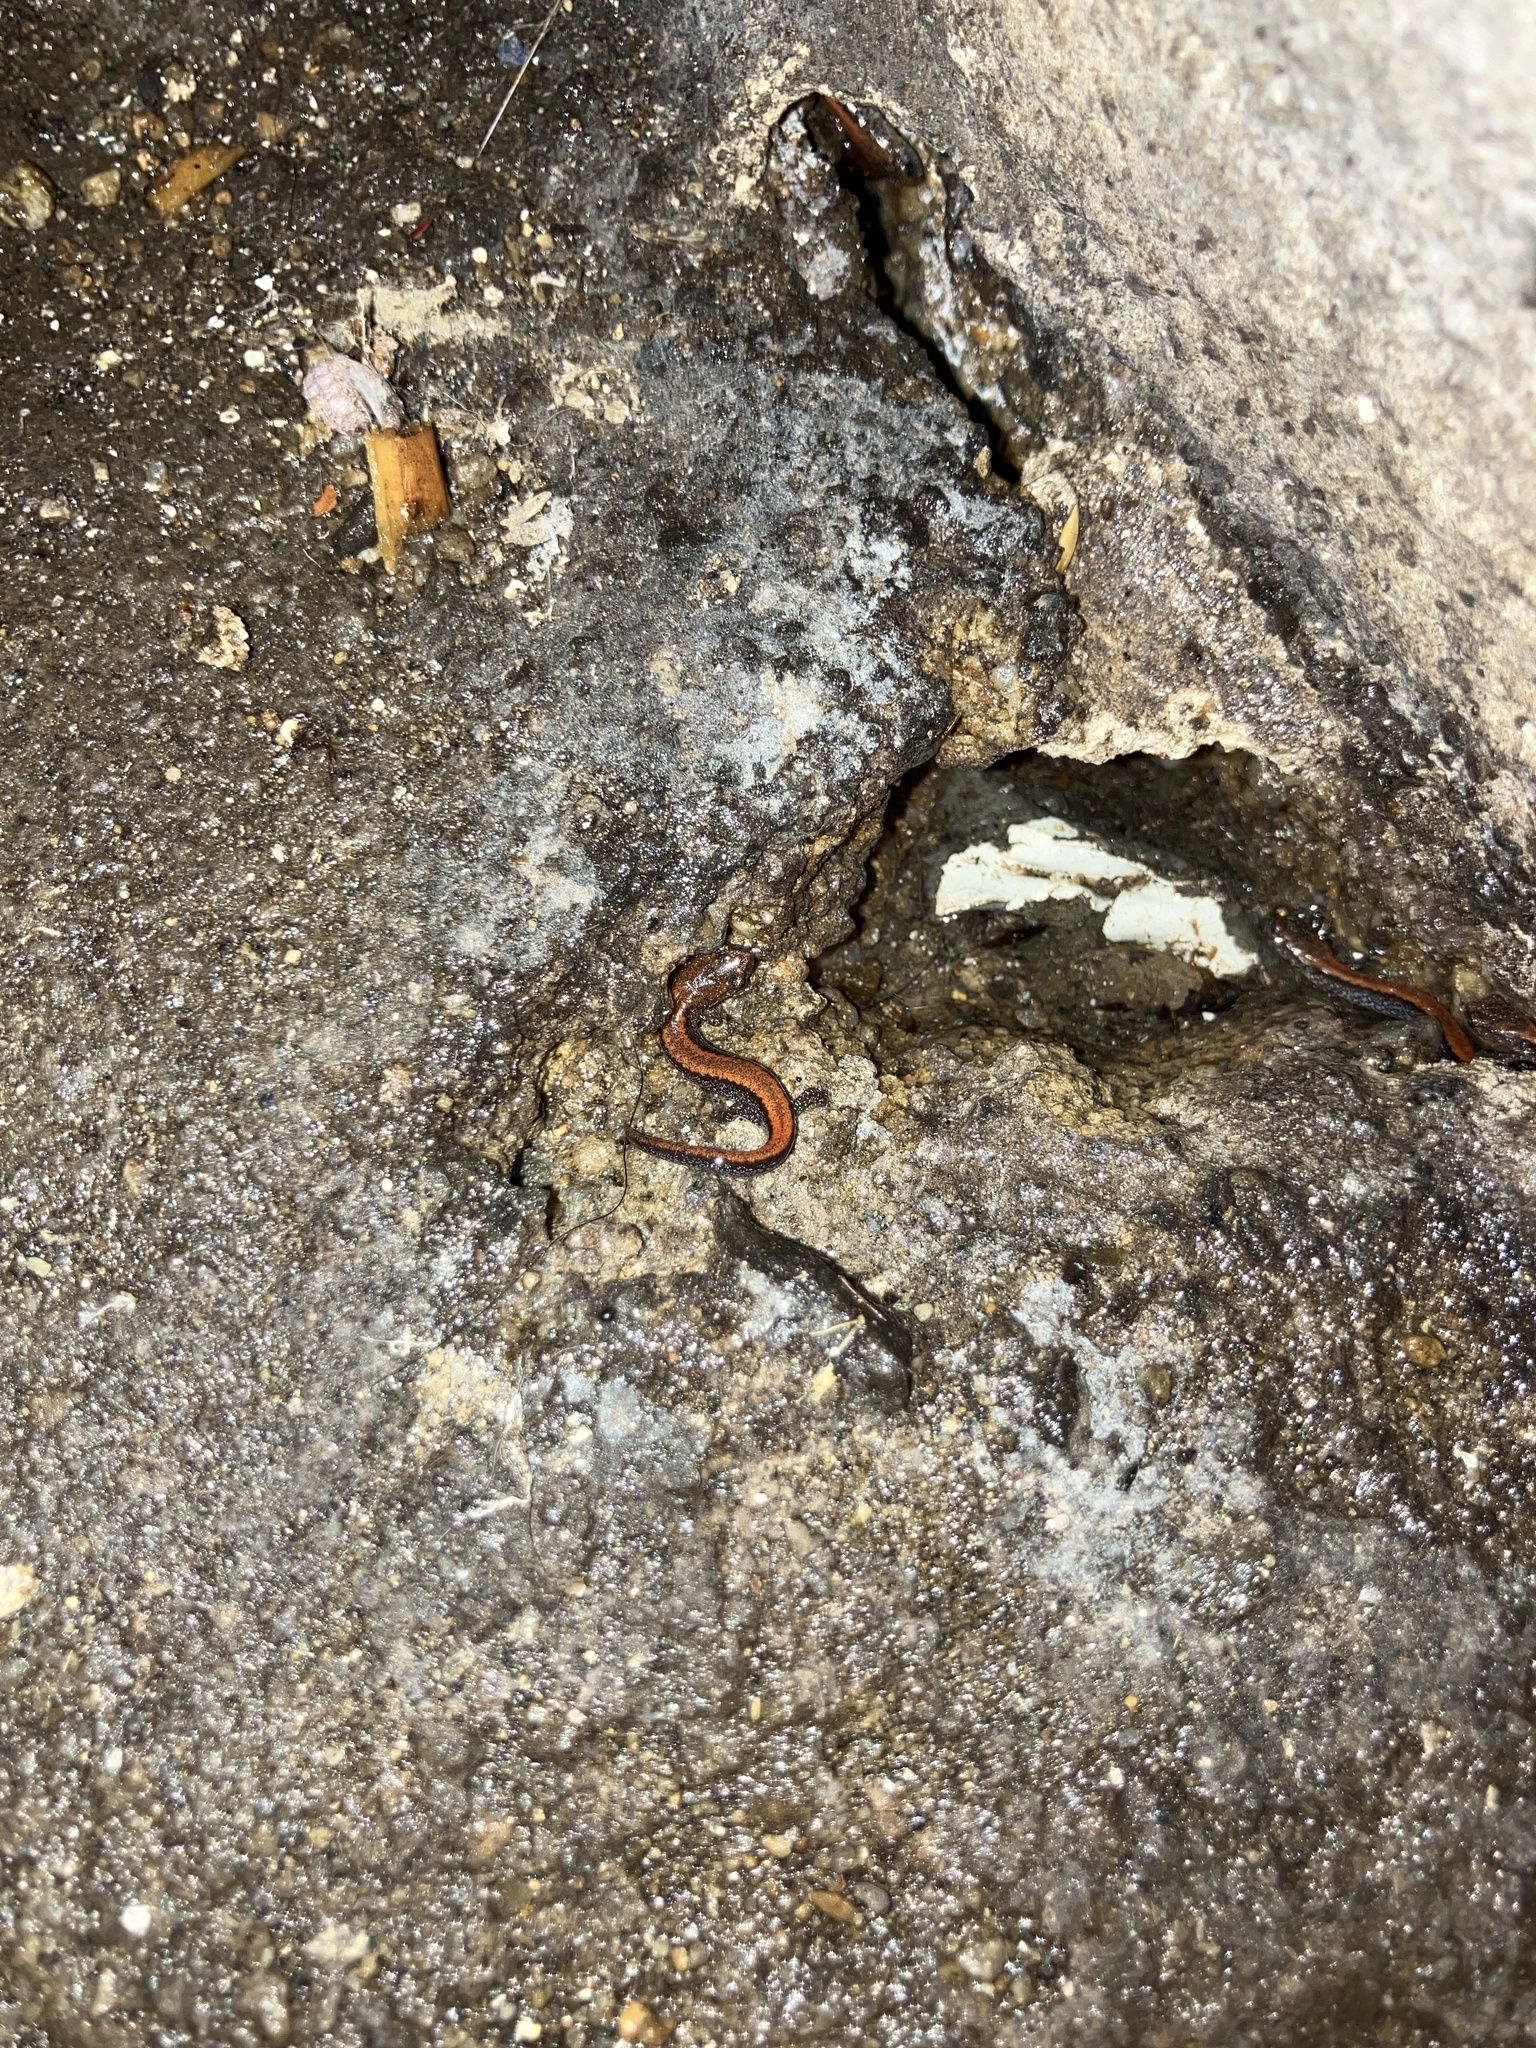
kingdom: Animalia
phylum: Chordata
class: Amphibia
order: Caudata
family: Plethodontidae
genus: Plethodon
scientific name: Plethodon cinereus
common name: Redback salamander
